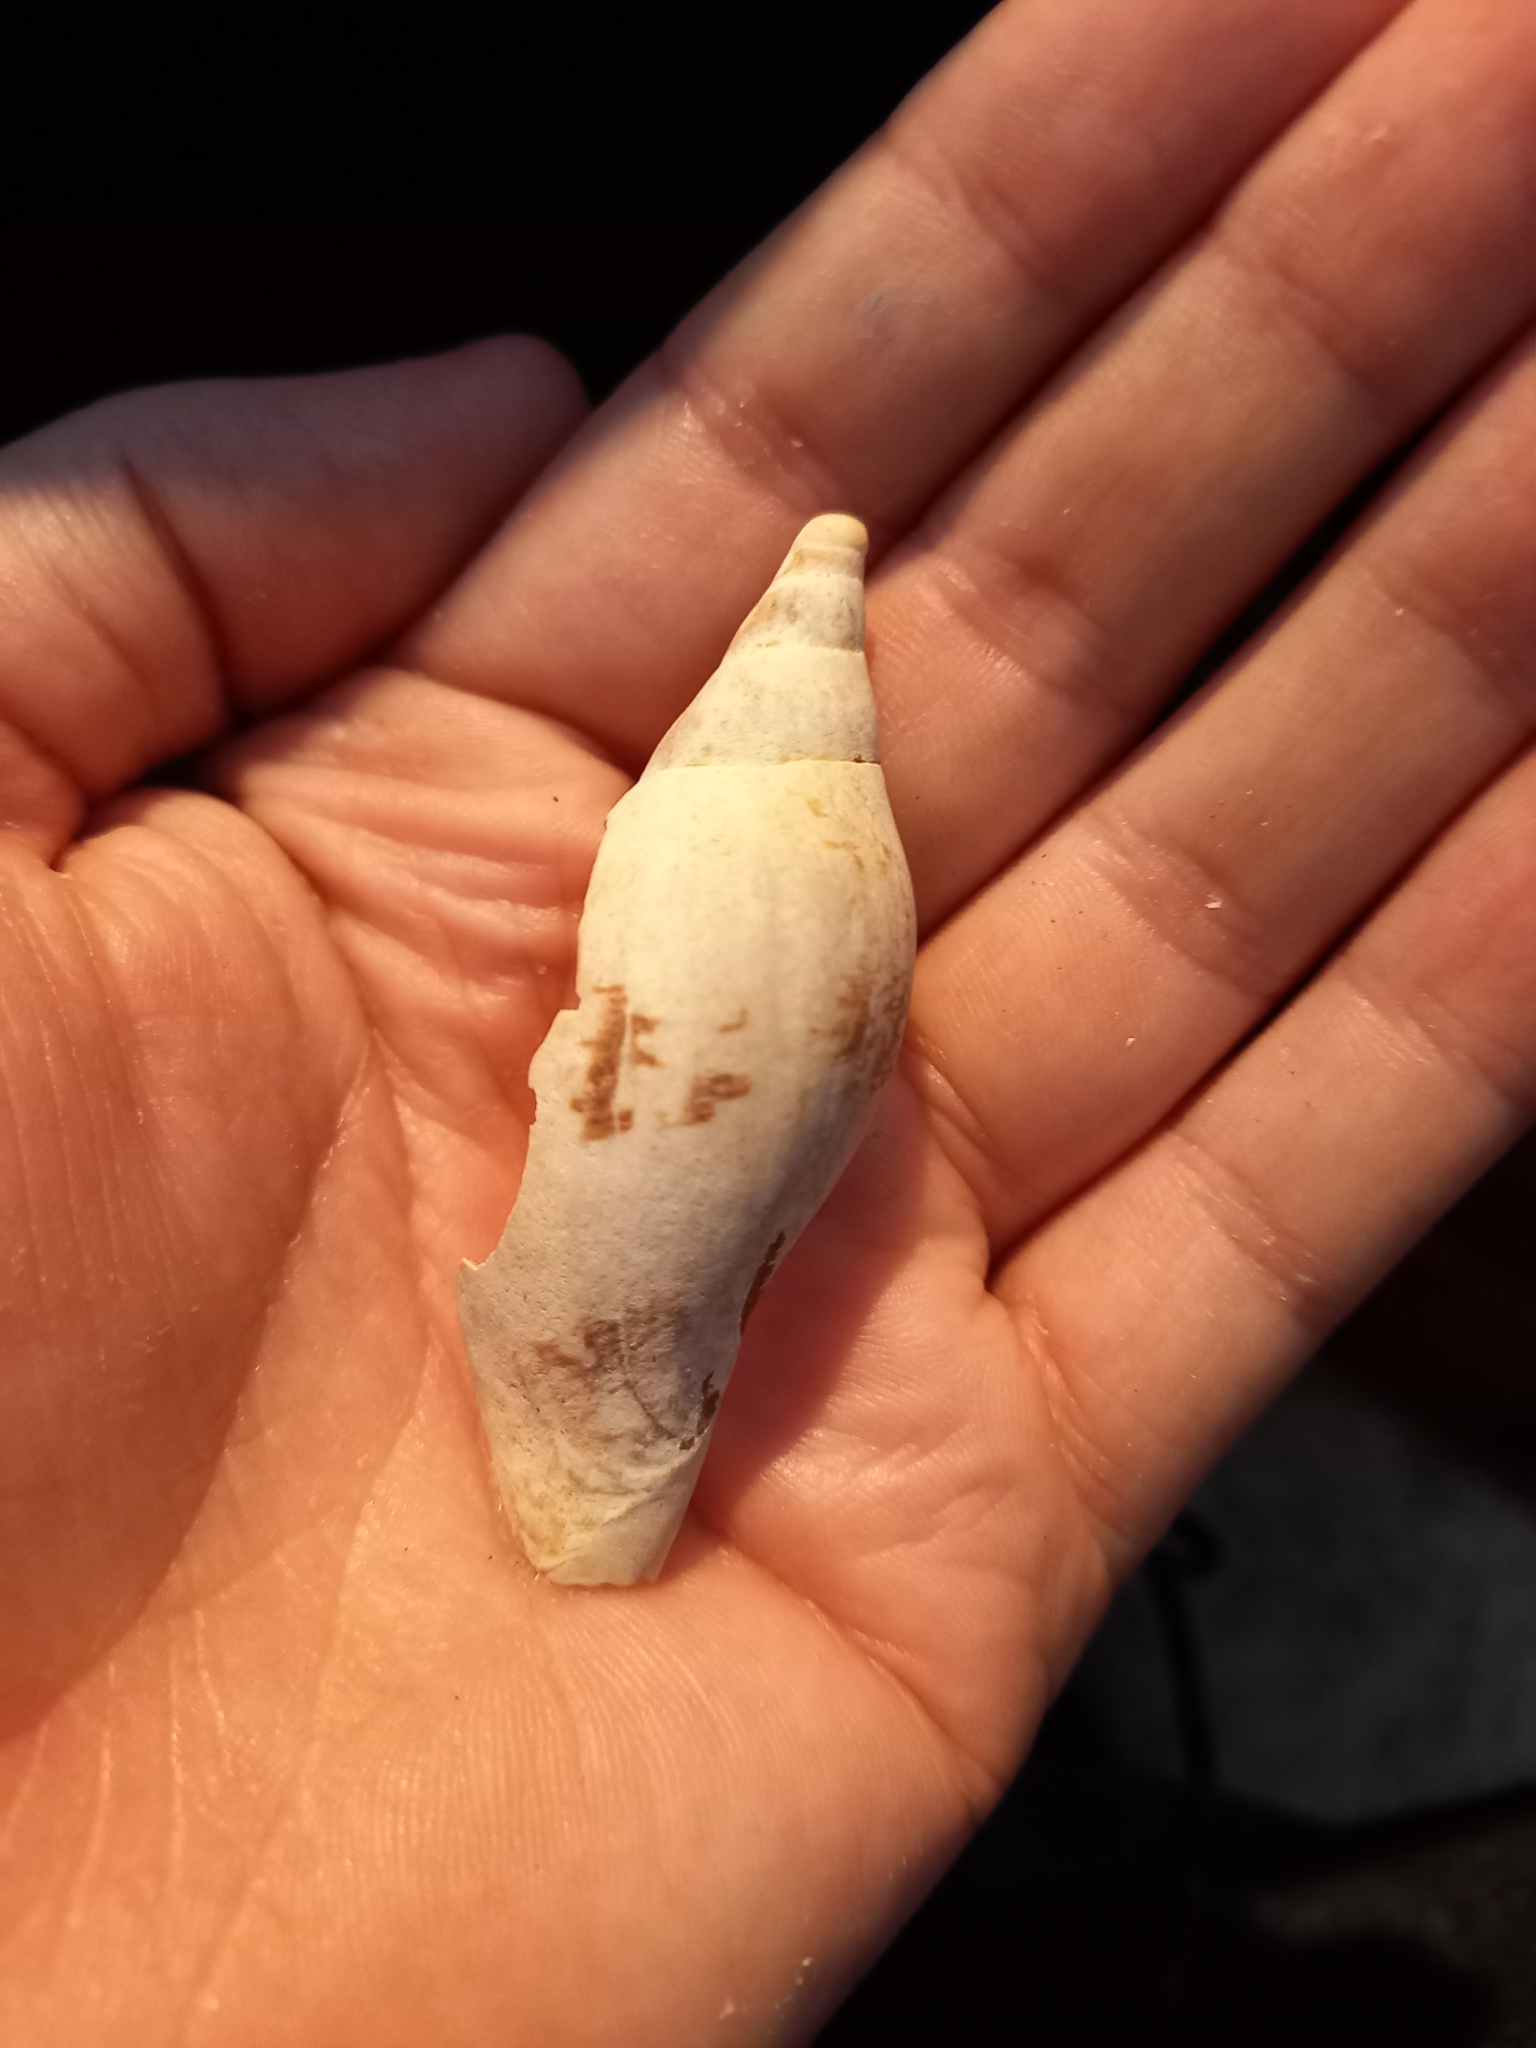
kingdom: Animalia
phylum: Mollusca
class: Gastropoda
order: Neogastropoda
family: Volutidae
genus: Alcithoe
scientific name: Alcithoe arabica
